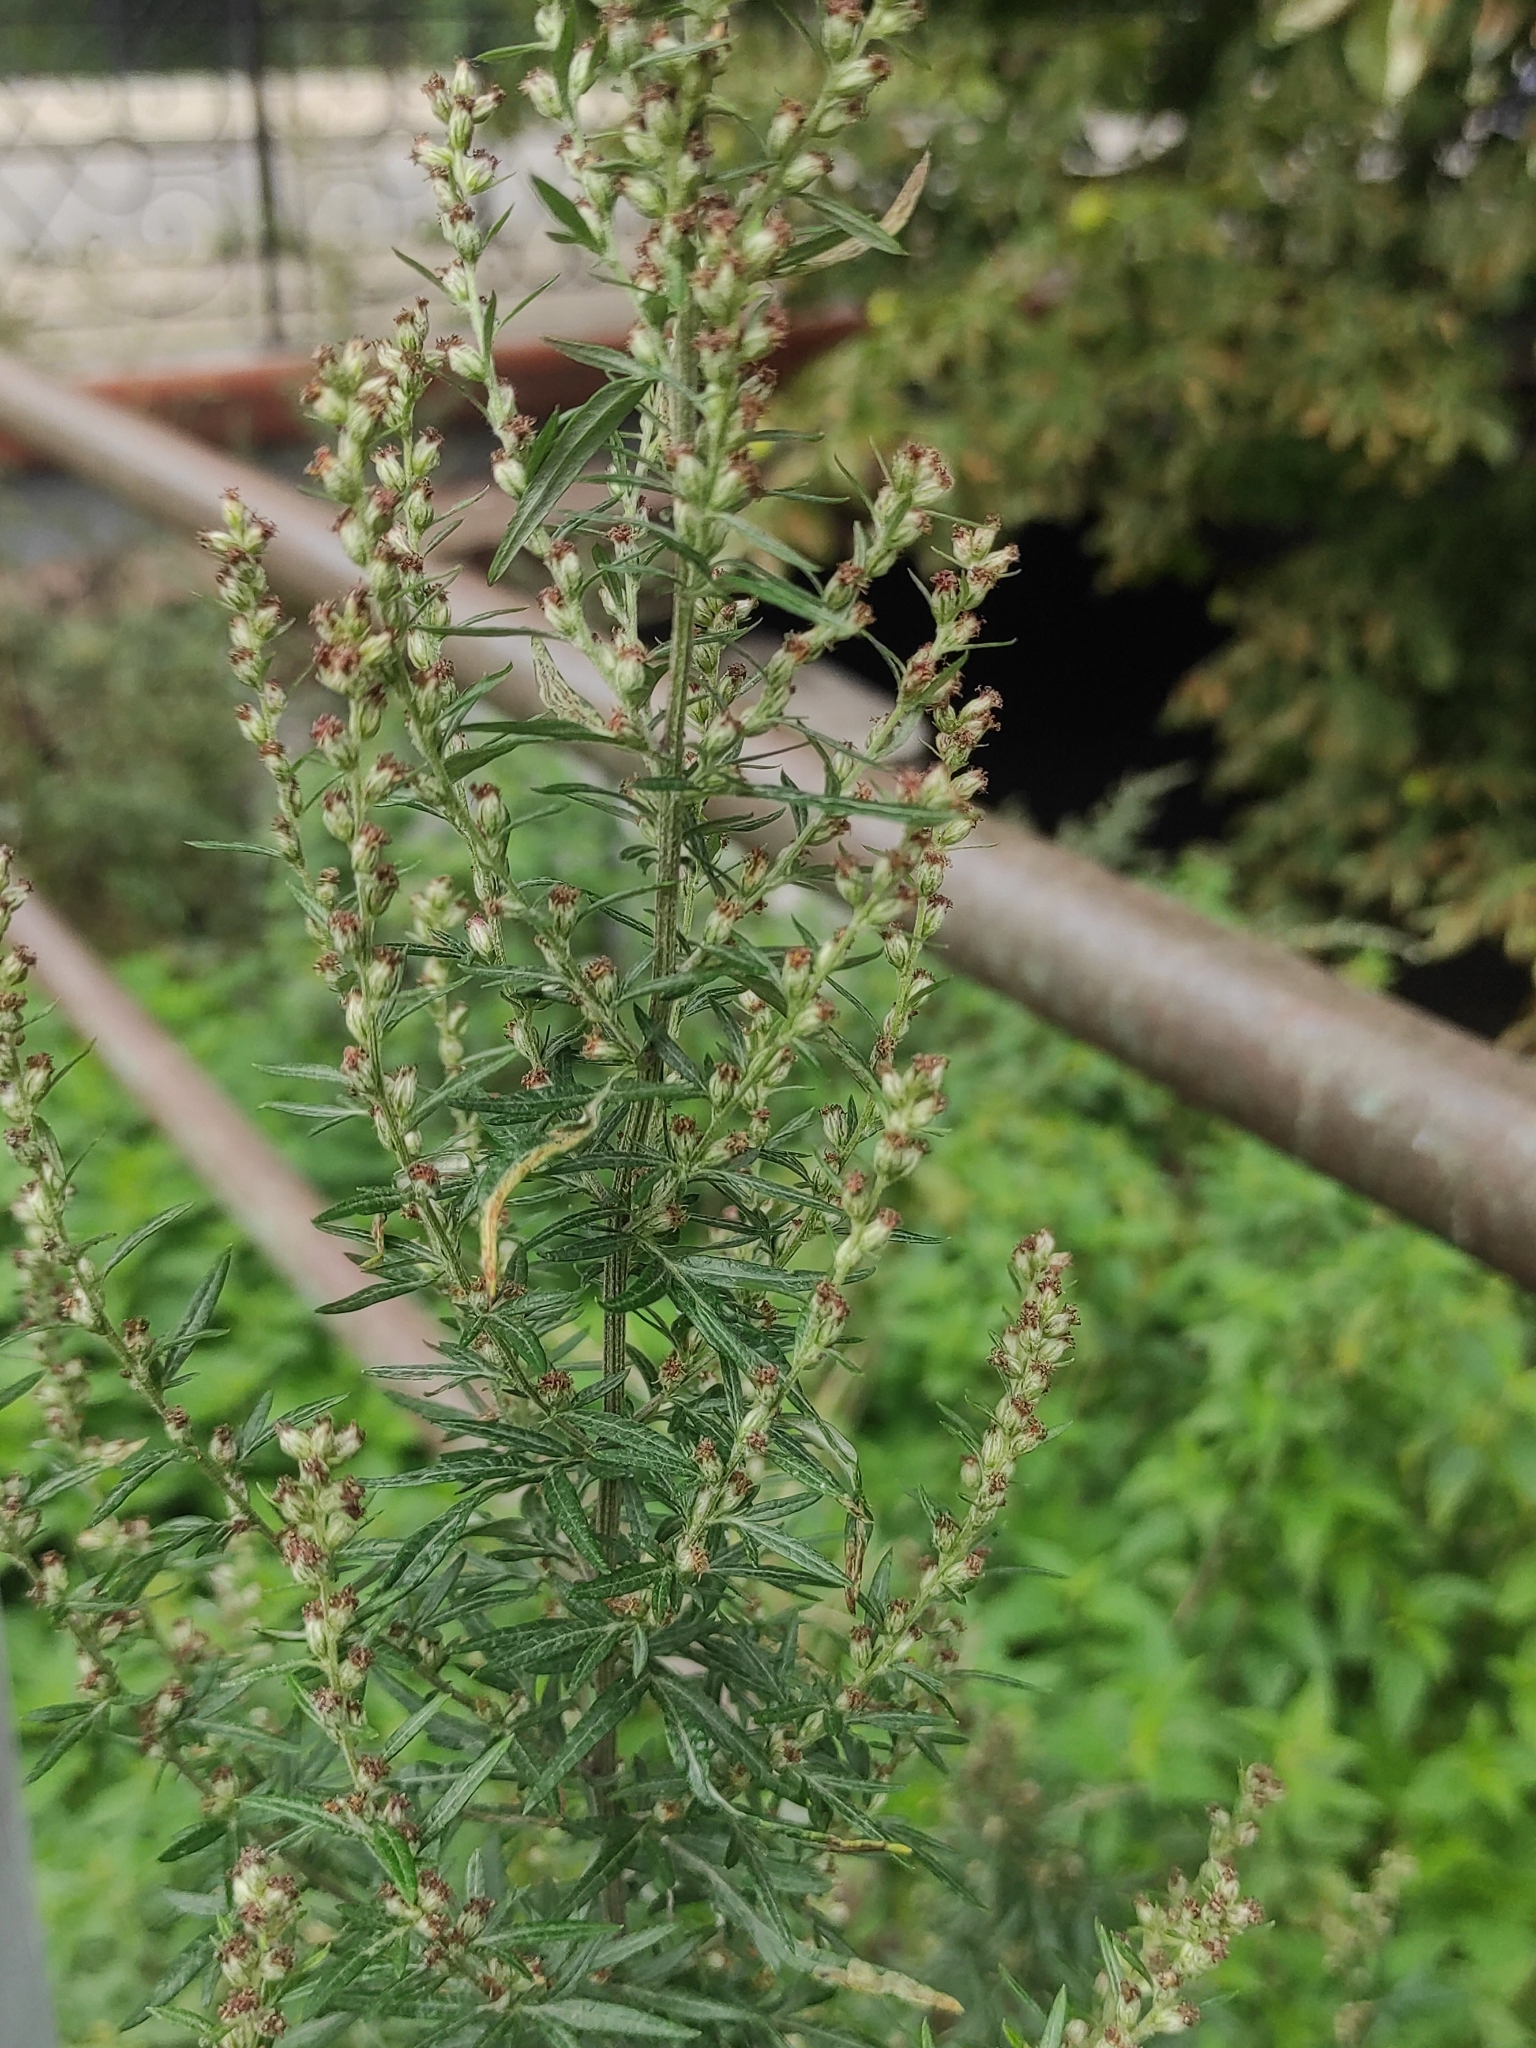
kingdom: Plantae
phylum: Tracheophyta
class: Magnoliopsida
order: Asterales
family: Asteraceae
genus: Artemisia
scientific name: Artemisia vulgaris
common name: Mugwort
